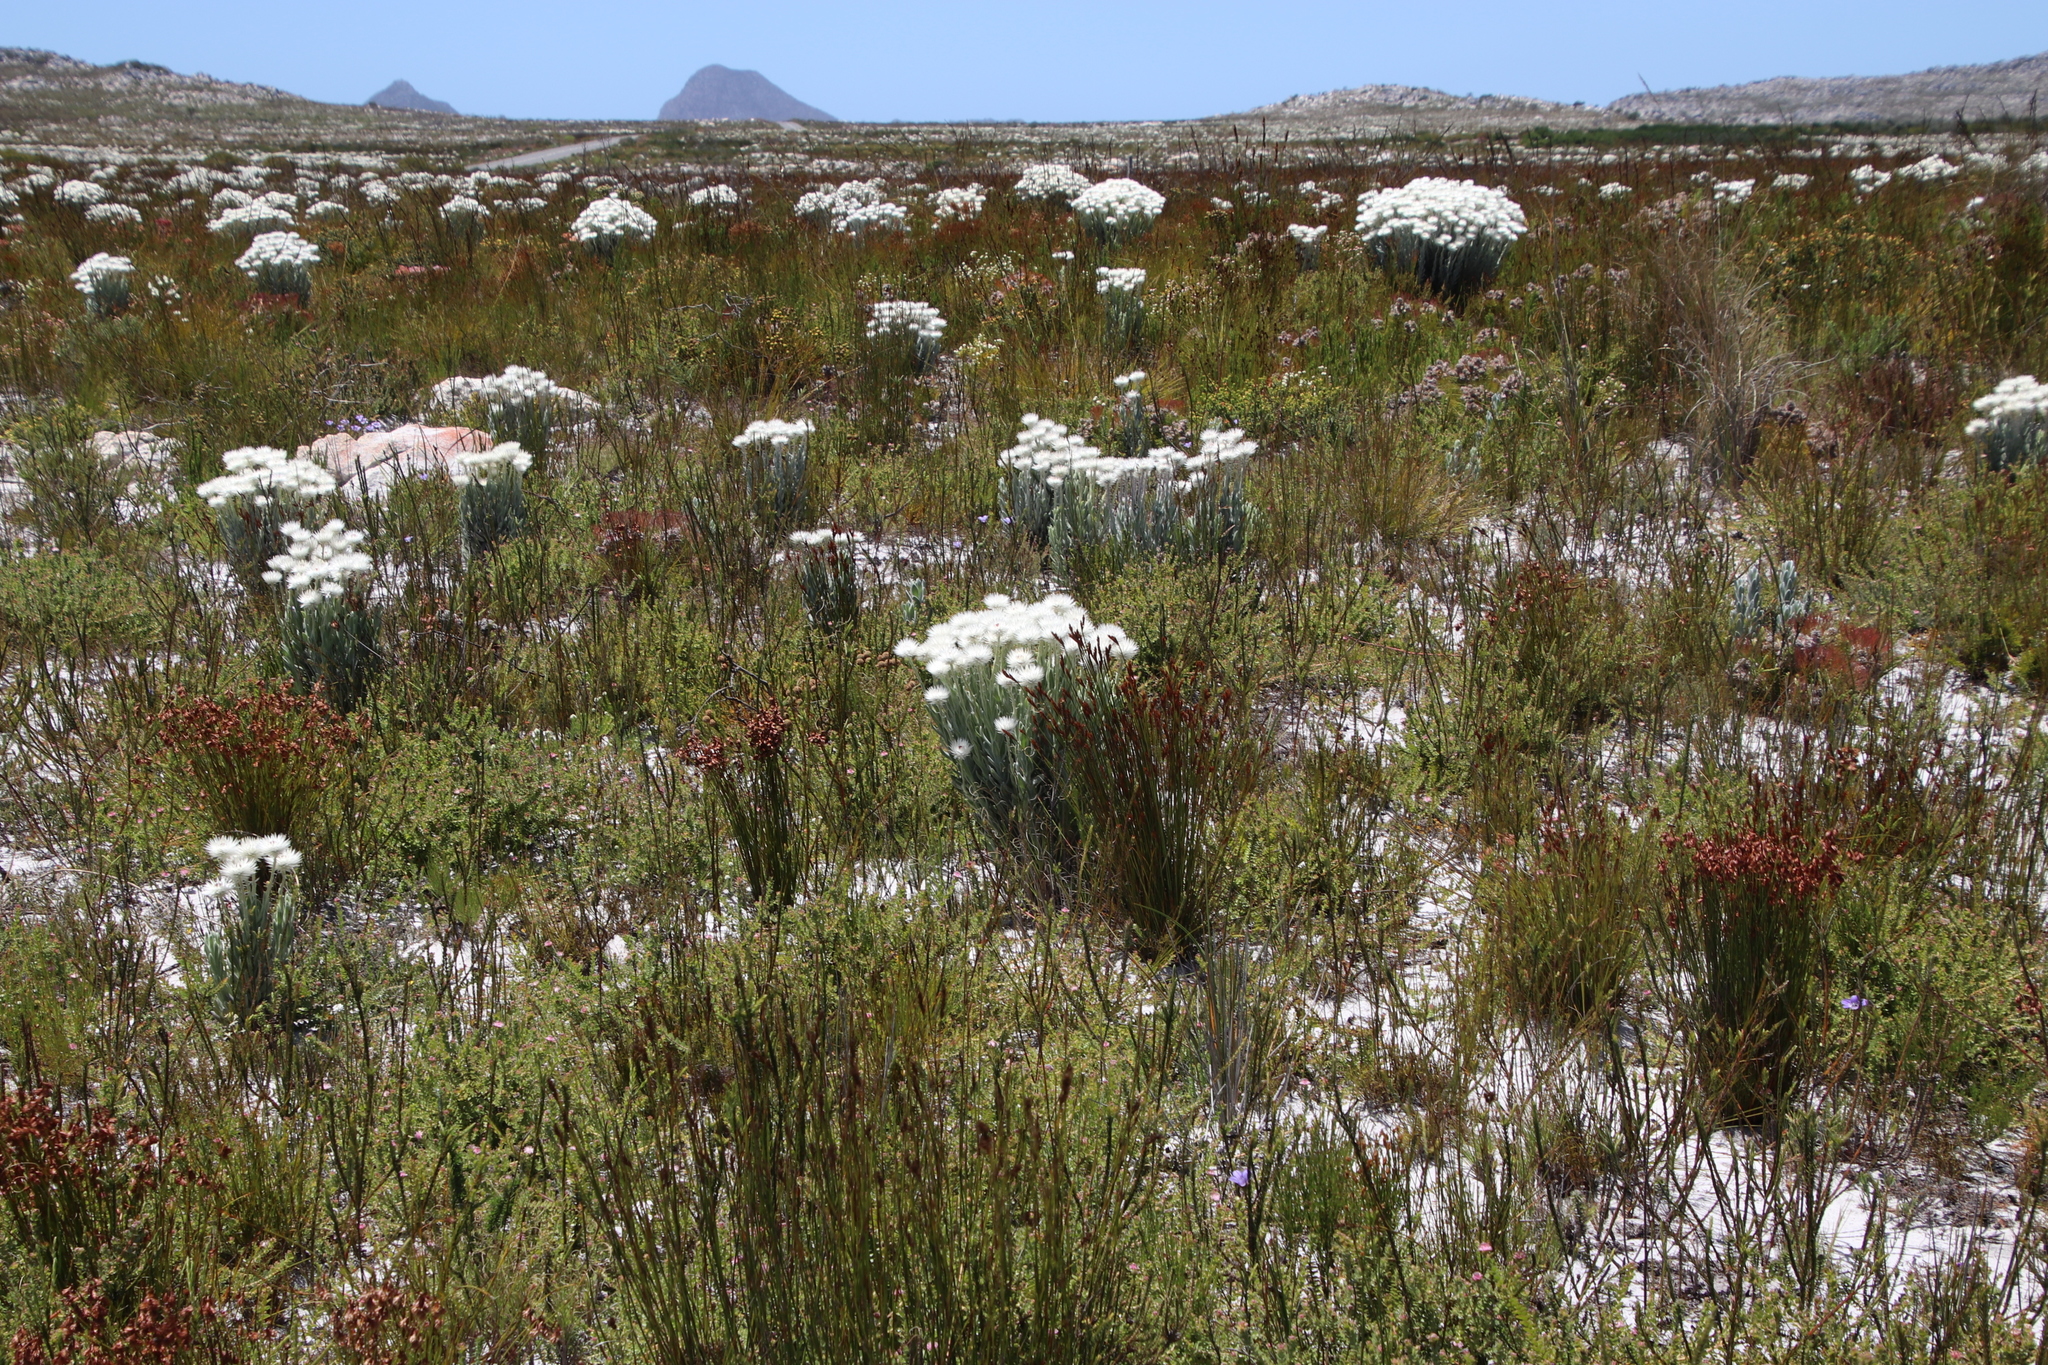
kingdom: Plantae
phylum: Tracheophyta
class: Magnoliopsida
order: Asterales
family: Asteraceae
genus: Syncarpha
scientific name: Syncarpha vestita
